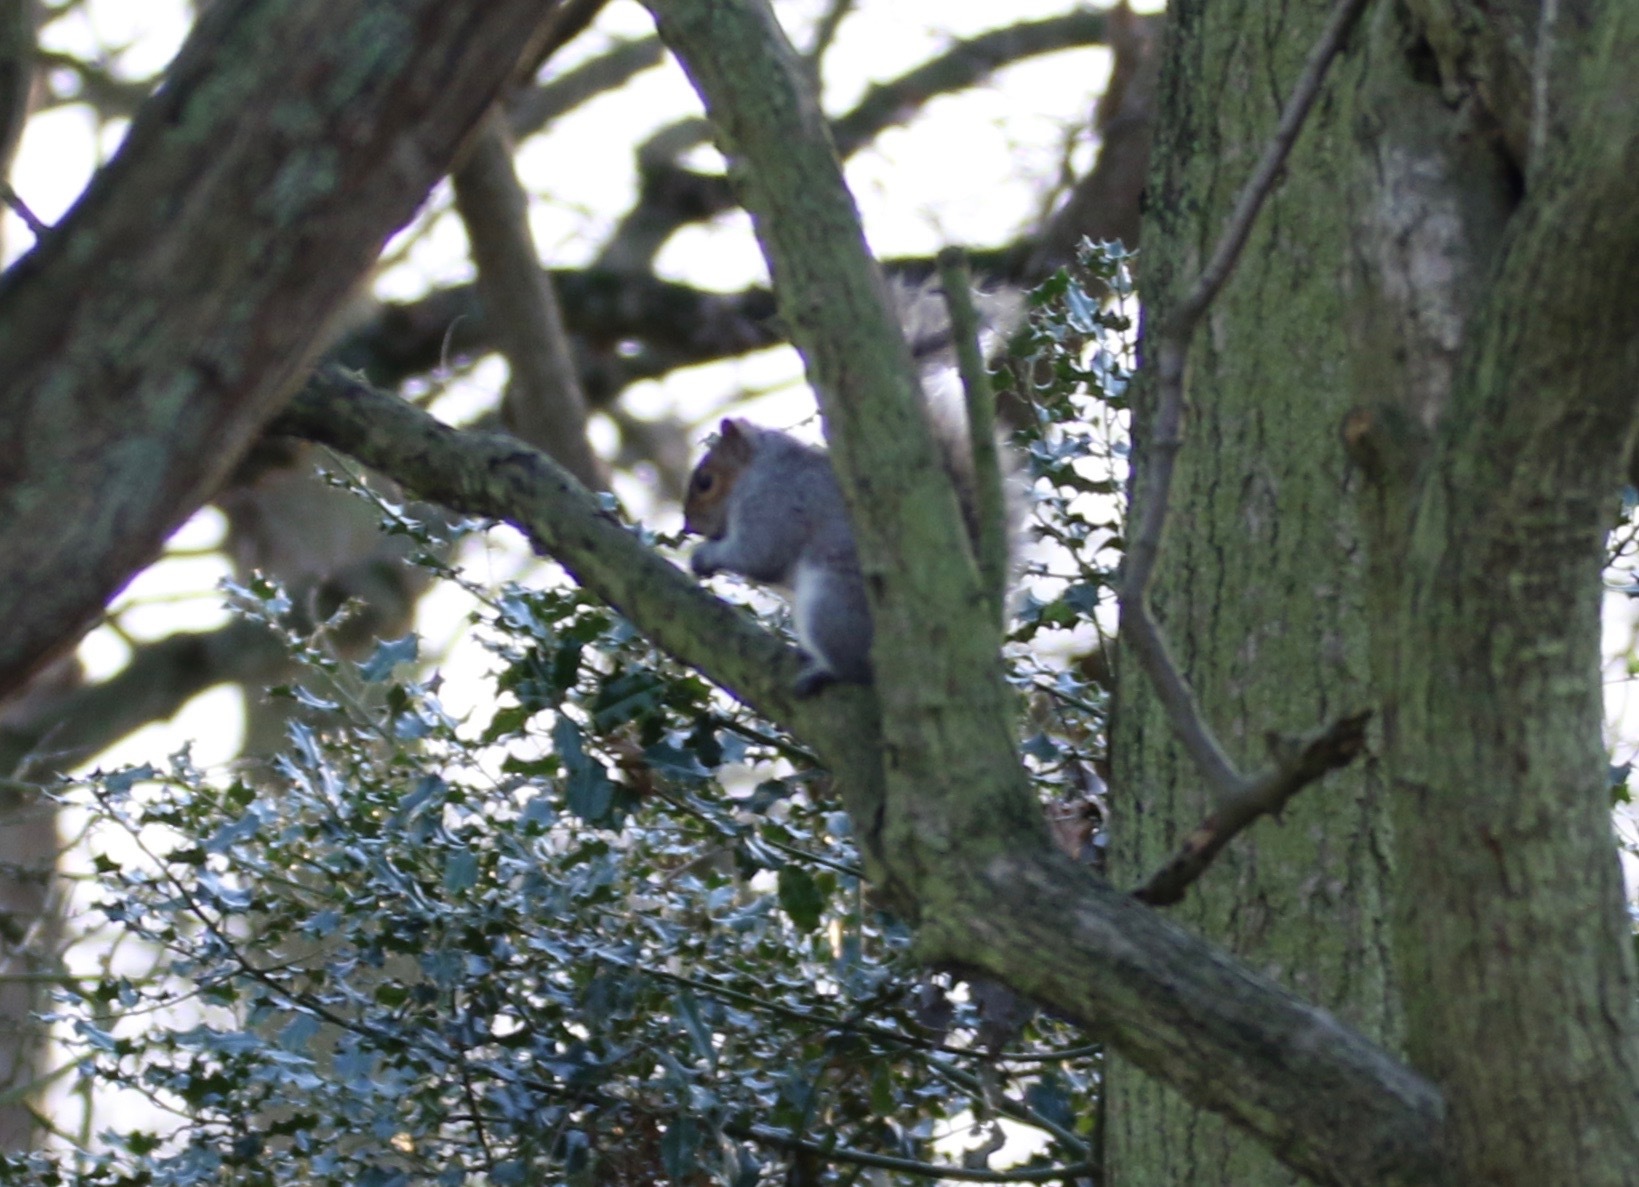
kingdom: Animalia
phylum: Chordata
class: Mammalia
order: Rodentia
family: Sciuridae
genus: Sciurus
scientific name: Sciurus carolinensis
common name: Eastern gray squirrel
